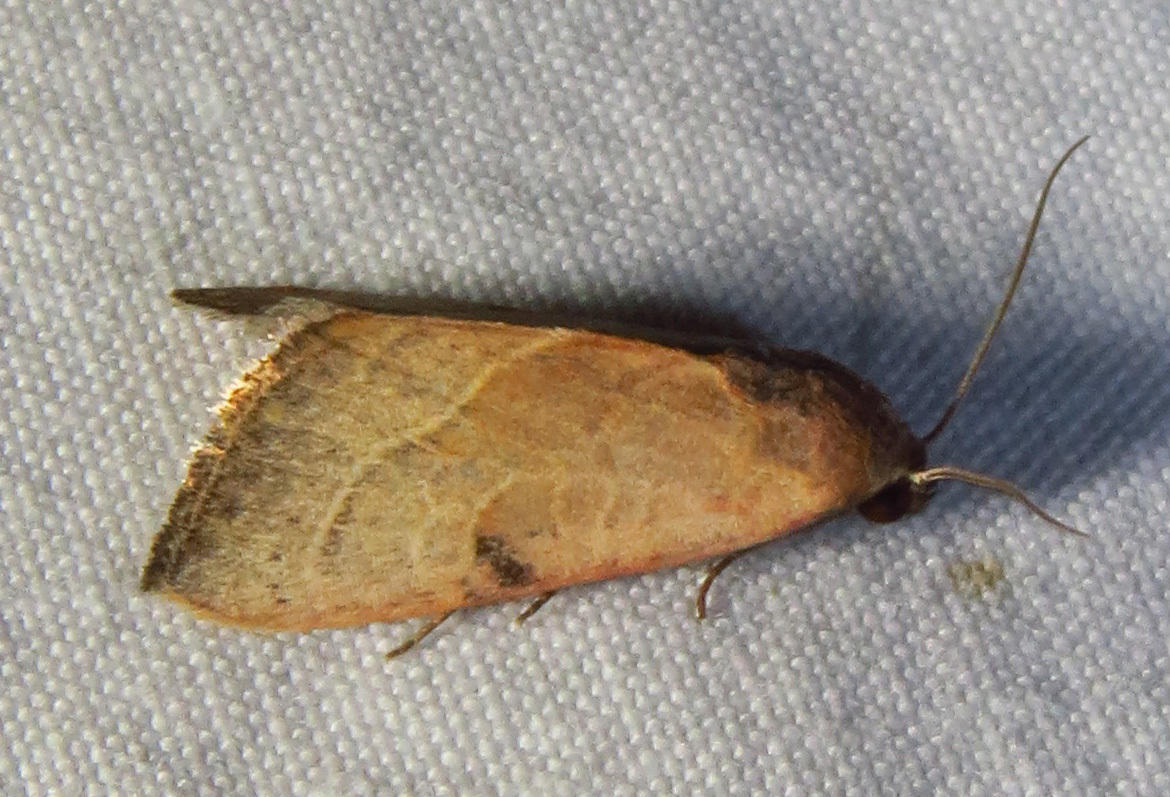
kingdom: Animalia
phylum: Arthropoda
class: Insecta
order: Lepidoptera
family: Noctuidae
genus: Galgula
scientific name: Galgula partita
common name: Wedgeling
